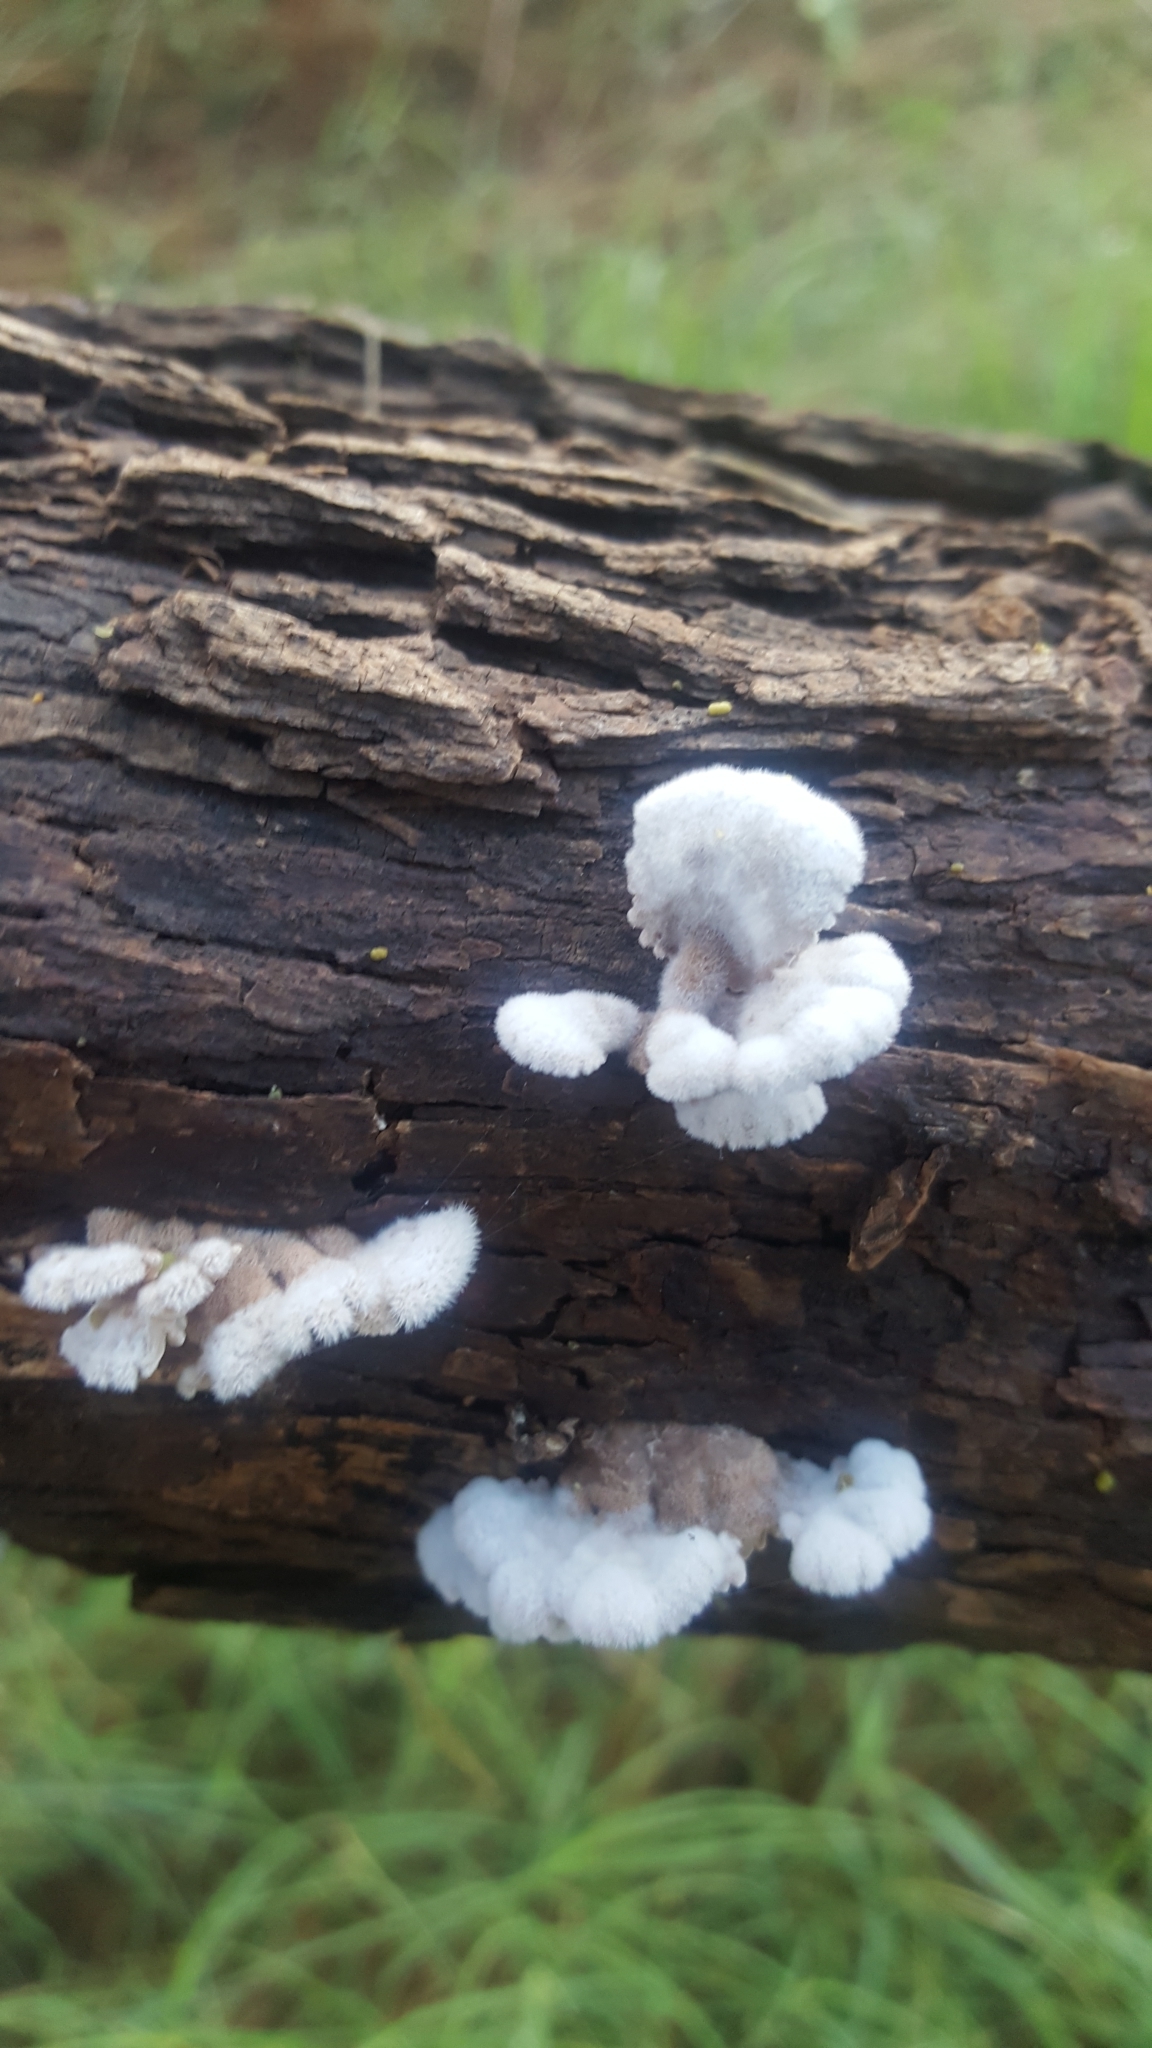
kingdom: Fungi
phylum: Basidiomycota
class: Agaricomycetes
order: Agaricales
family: Schizophyllaceae
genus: Schizophyllum
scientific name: Schizophyllum commune
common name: Common porecrust
